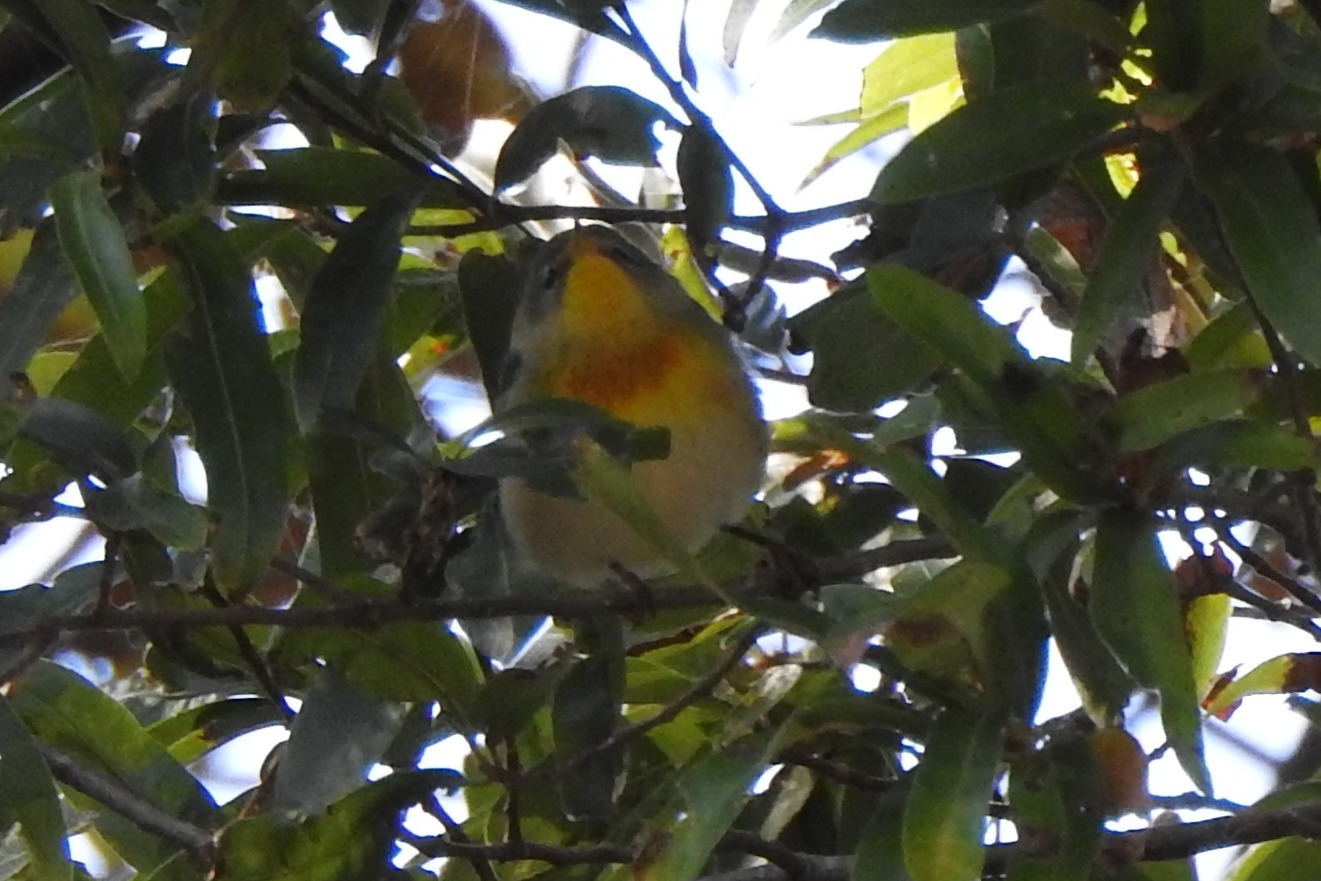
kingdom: Animalia
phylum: Chordata
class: Aves
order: Passeriformes
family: Parulidae
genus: Setophaga
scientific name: Setophaga americana
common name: Northern parula
